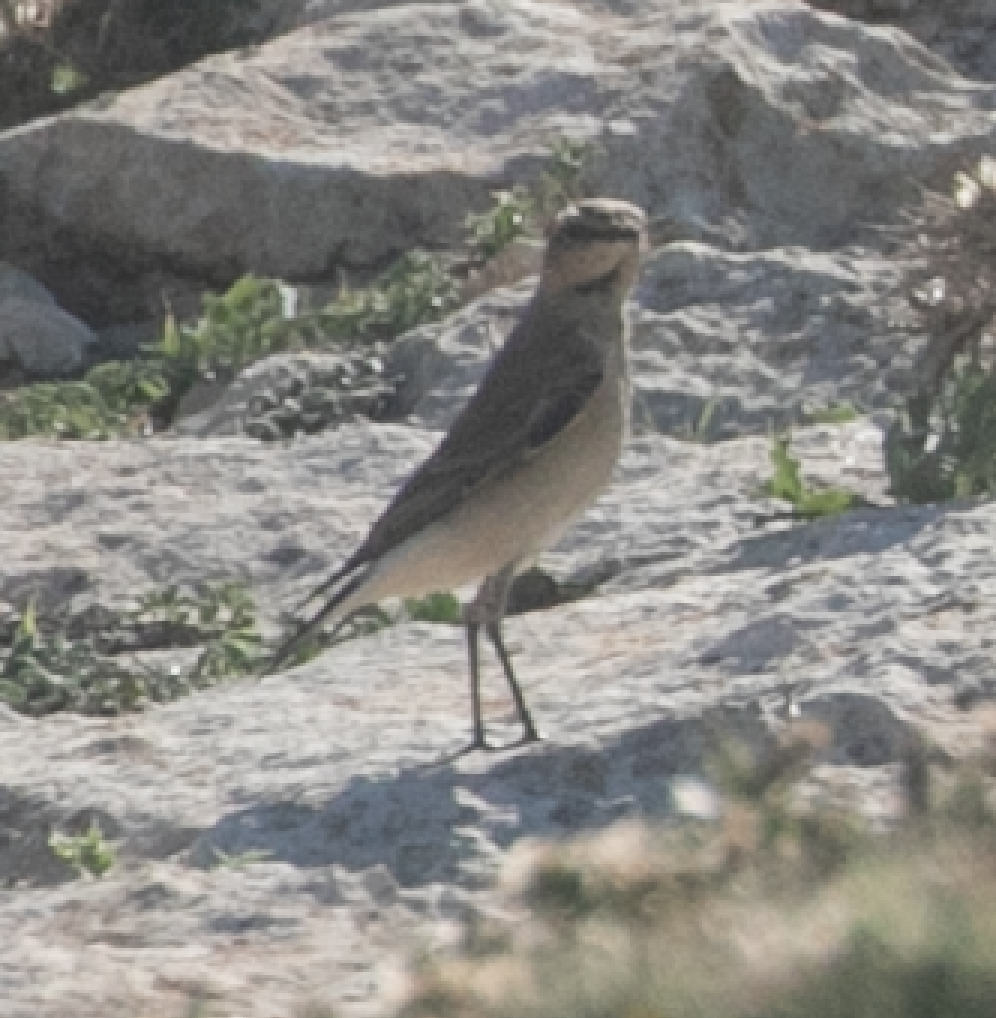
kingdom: Animalia
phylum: Chordata
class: Aves
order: Passeriformes
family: Muscicapidae
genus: Oenanthe
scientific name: Oenanthe oenanthe
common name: Northern wheatear
